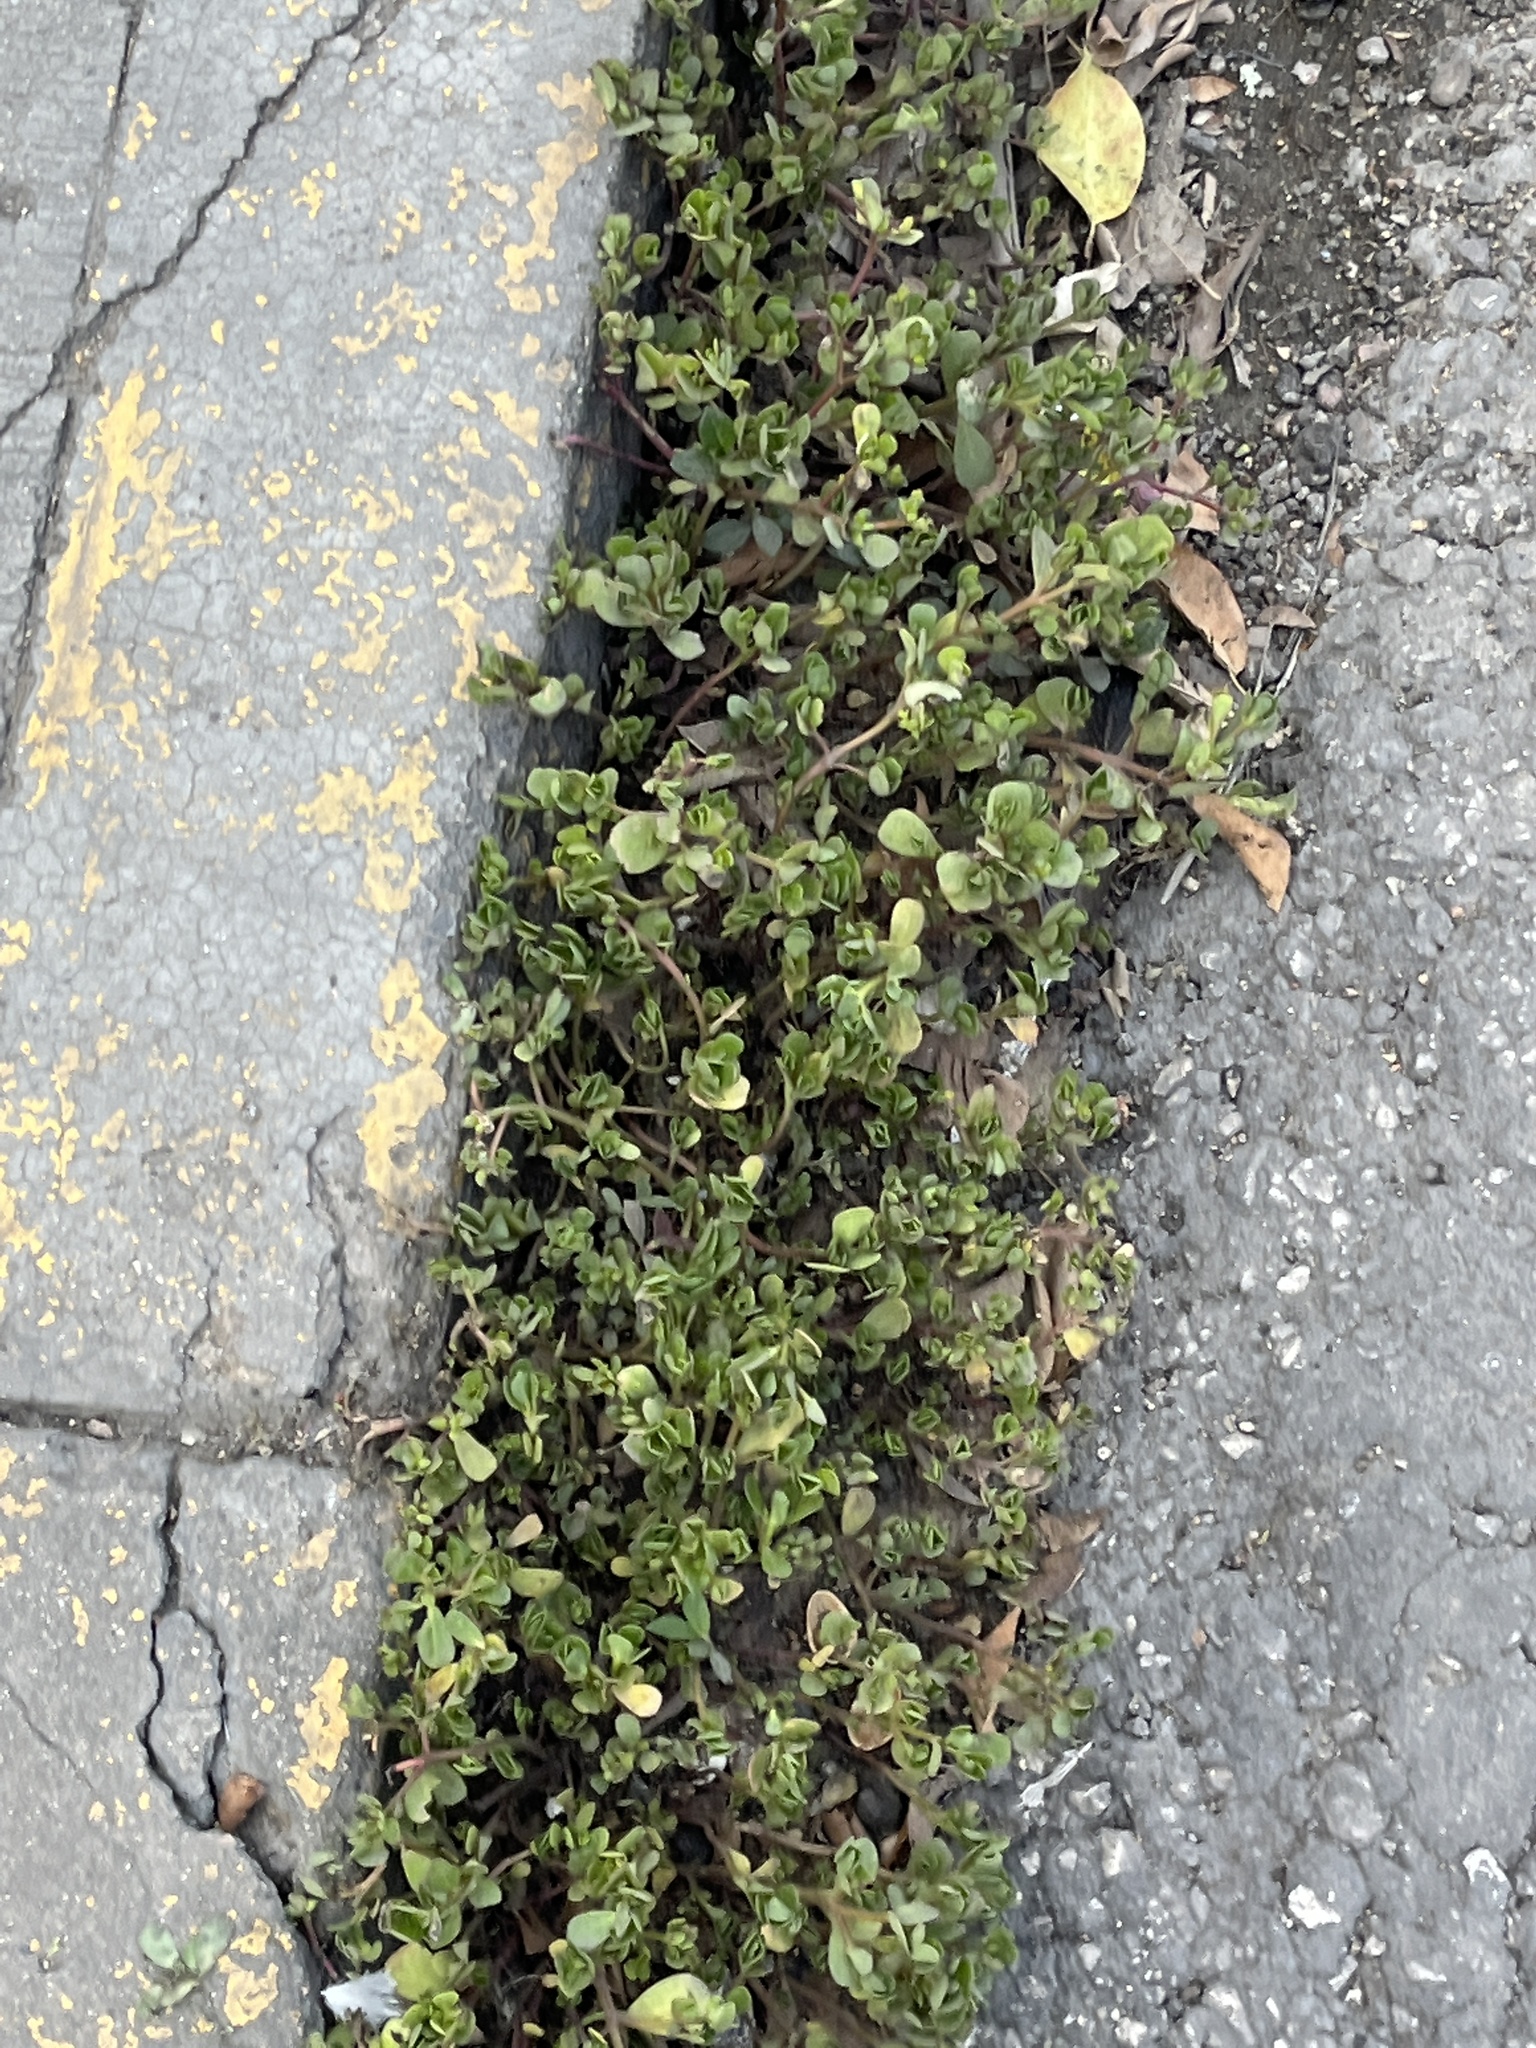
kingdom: Plantae
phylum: Tracheophyta
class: Magnoliopsida
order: Caryophyllales
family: Portulacaceae
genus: Portulaca
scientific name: Portulaca oleracea
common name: Common purslane
